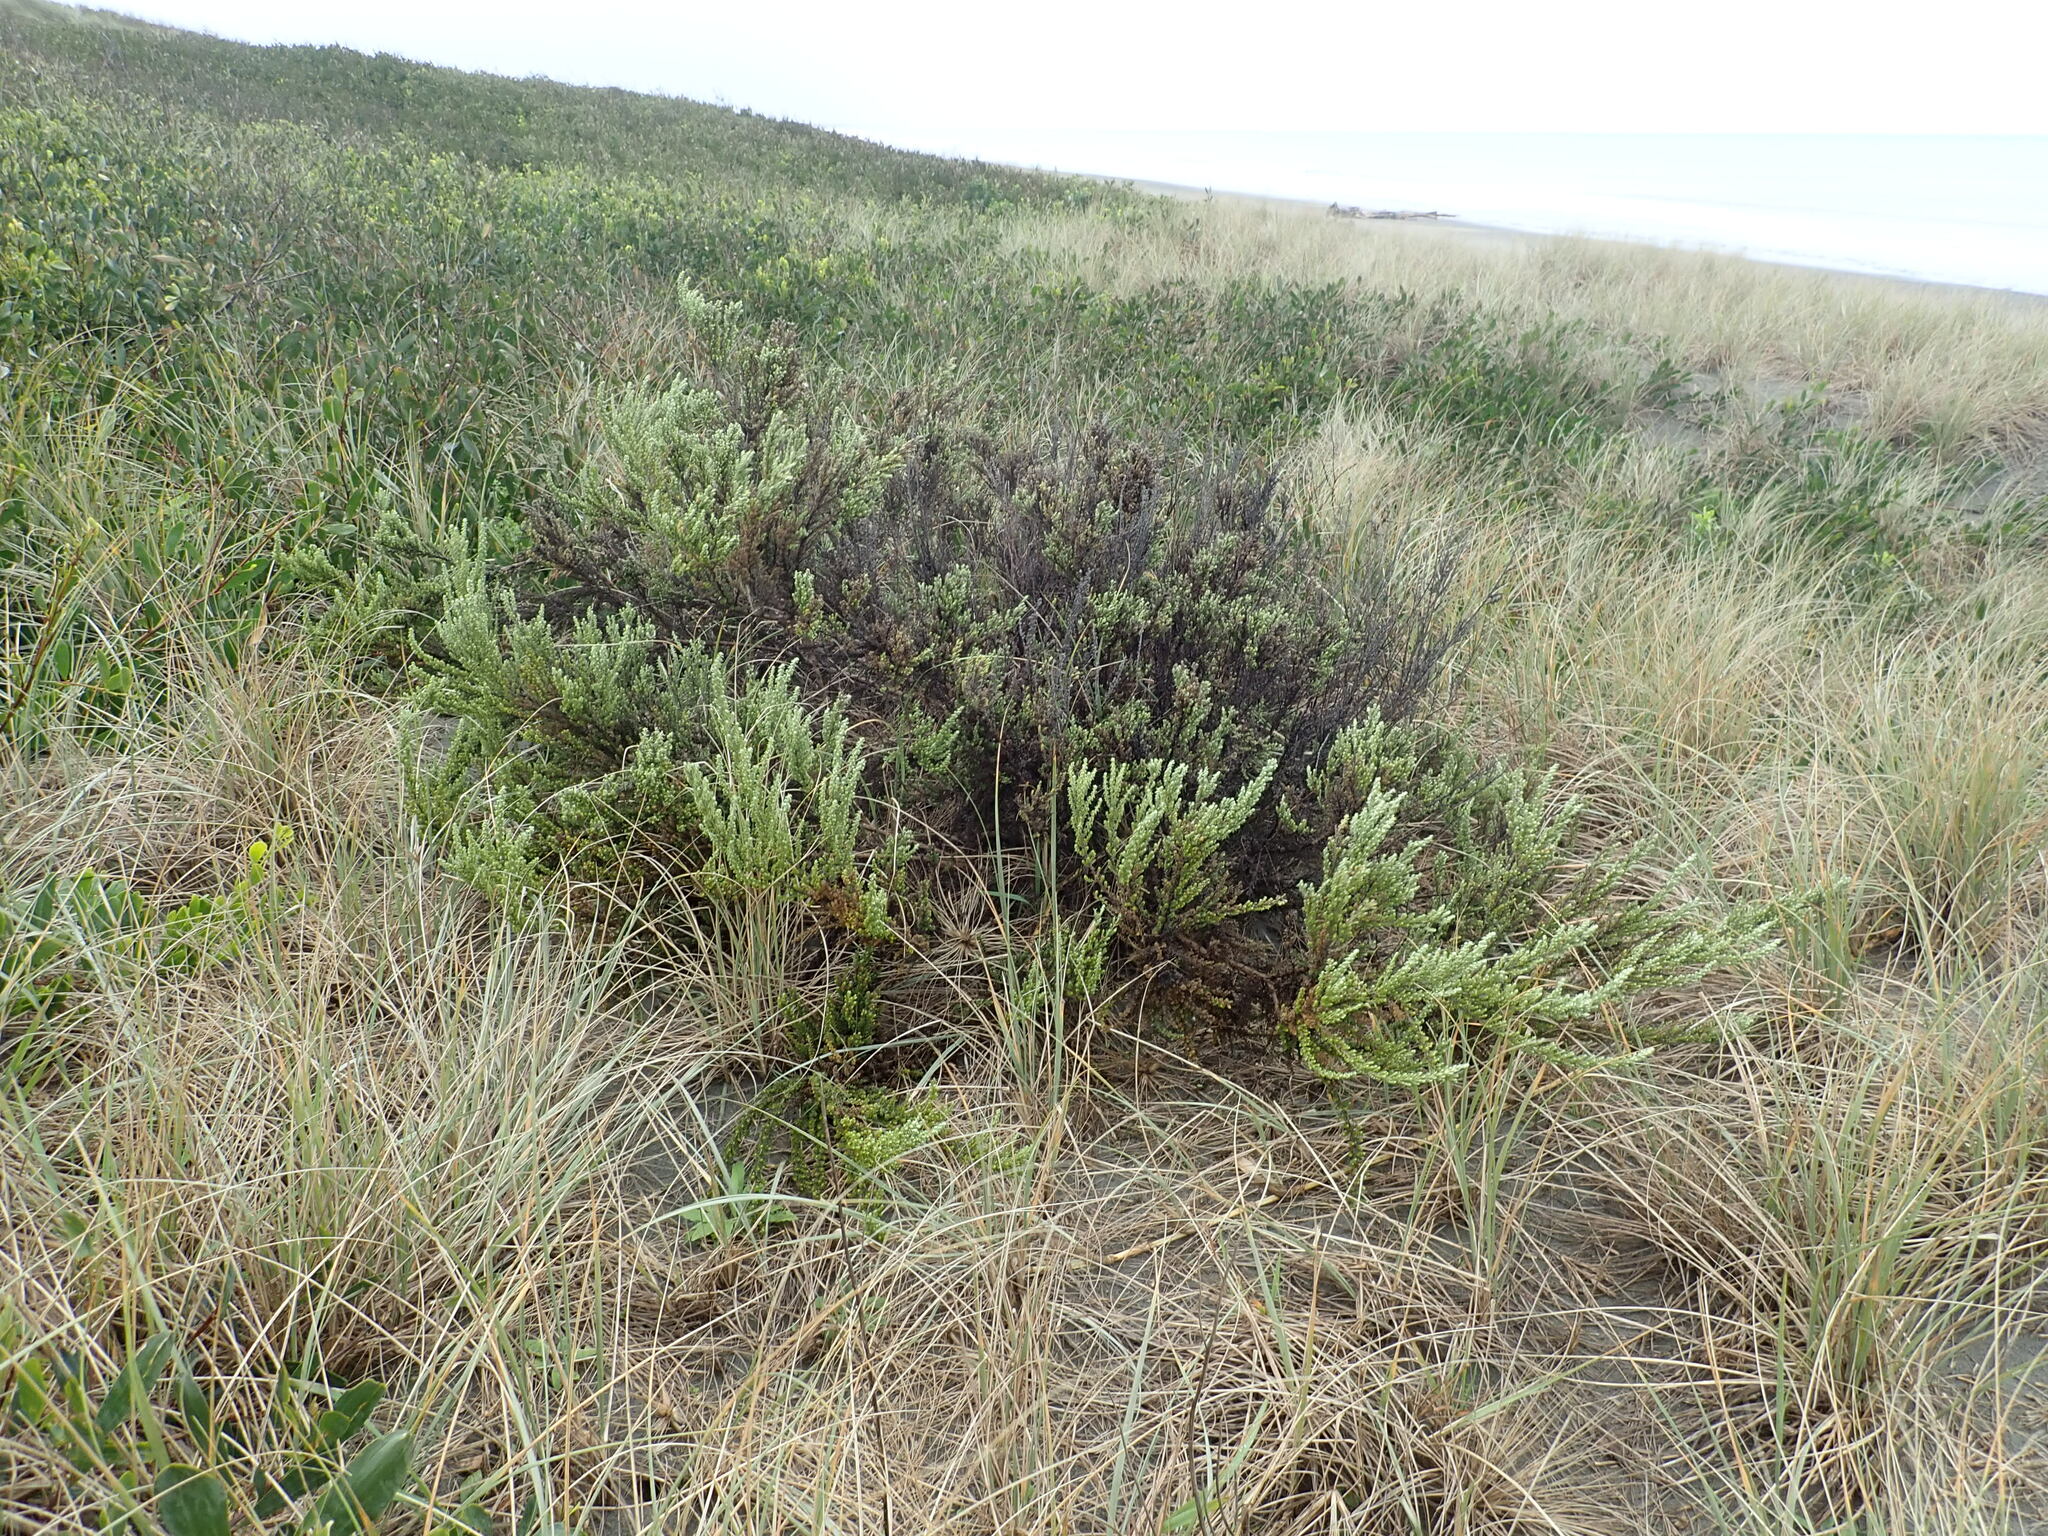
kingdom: Plantae
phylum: Tracheophyta
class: Magnoliopsida
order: Asterales
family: Asteraceae
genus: Ozothamnus
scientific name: Ozothamnus leptophyllus
